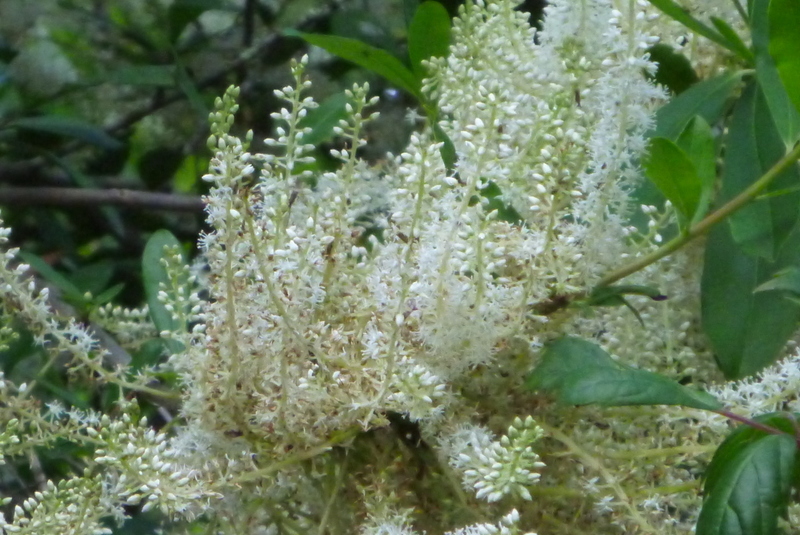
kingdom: Plantae
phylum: Tracheophyta
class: Magnoliopsida
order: Ericales
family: Cyrillaceae
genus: Cyrilla
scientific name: Cyrilla racemiflora
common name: Black titi
